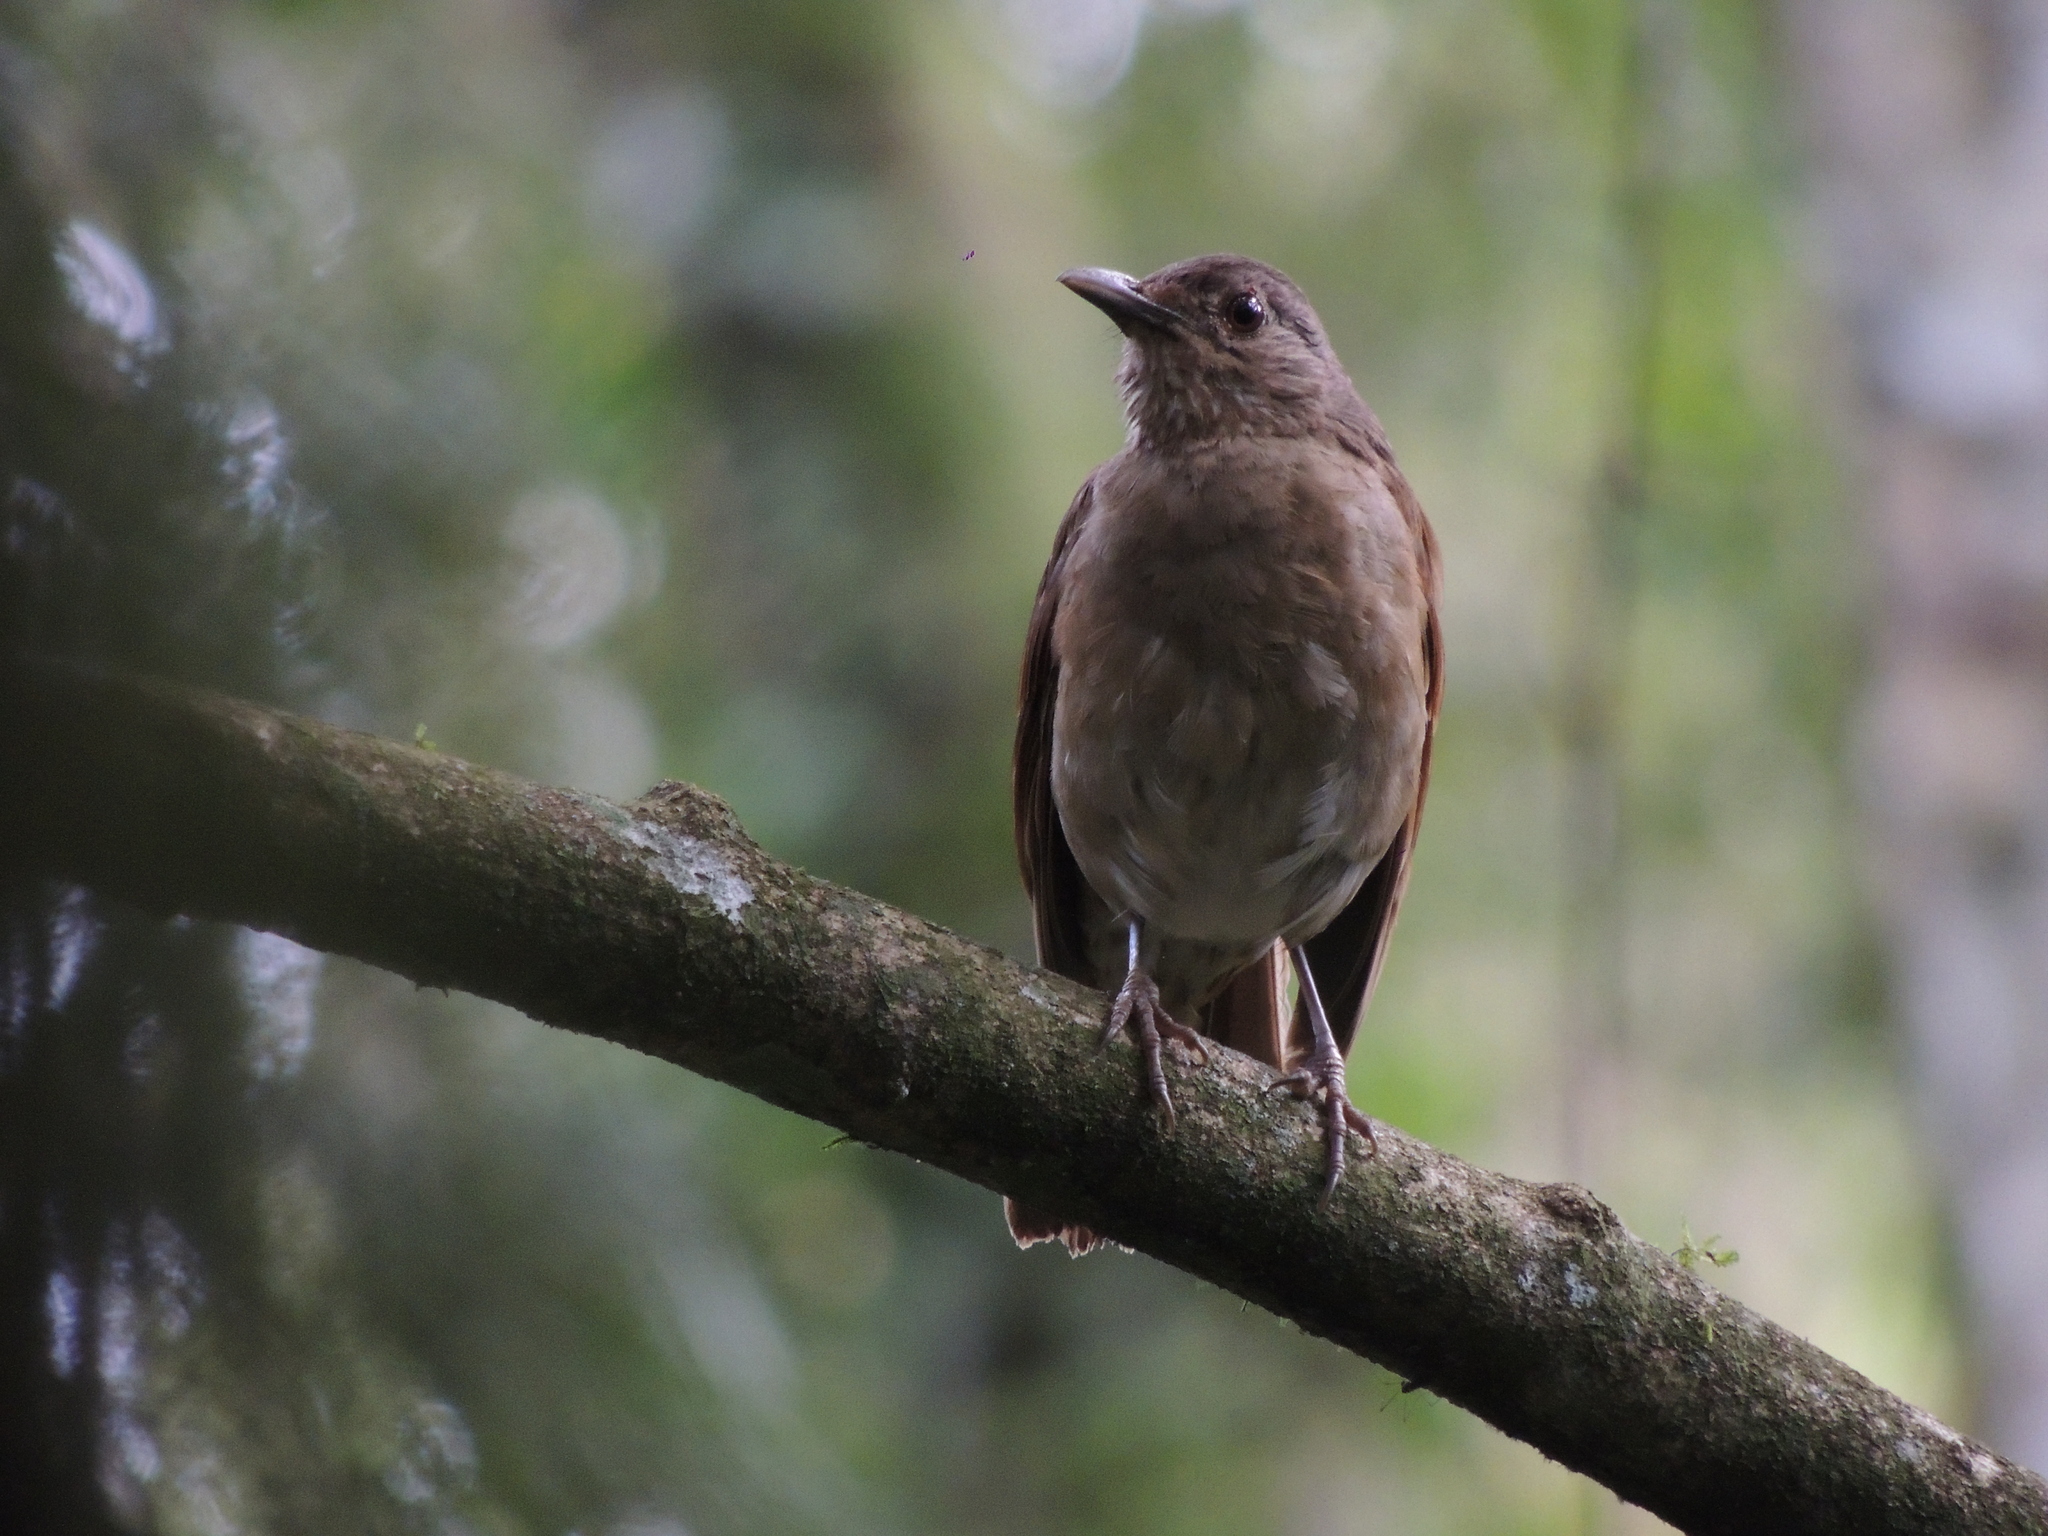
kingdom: Animalia
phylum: Chordata
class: Aves
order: Passeriformes
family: Turdidae
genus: Turdus
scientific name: Turdus leucomelas
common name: Pale-breasted thrush
